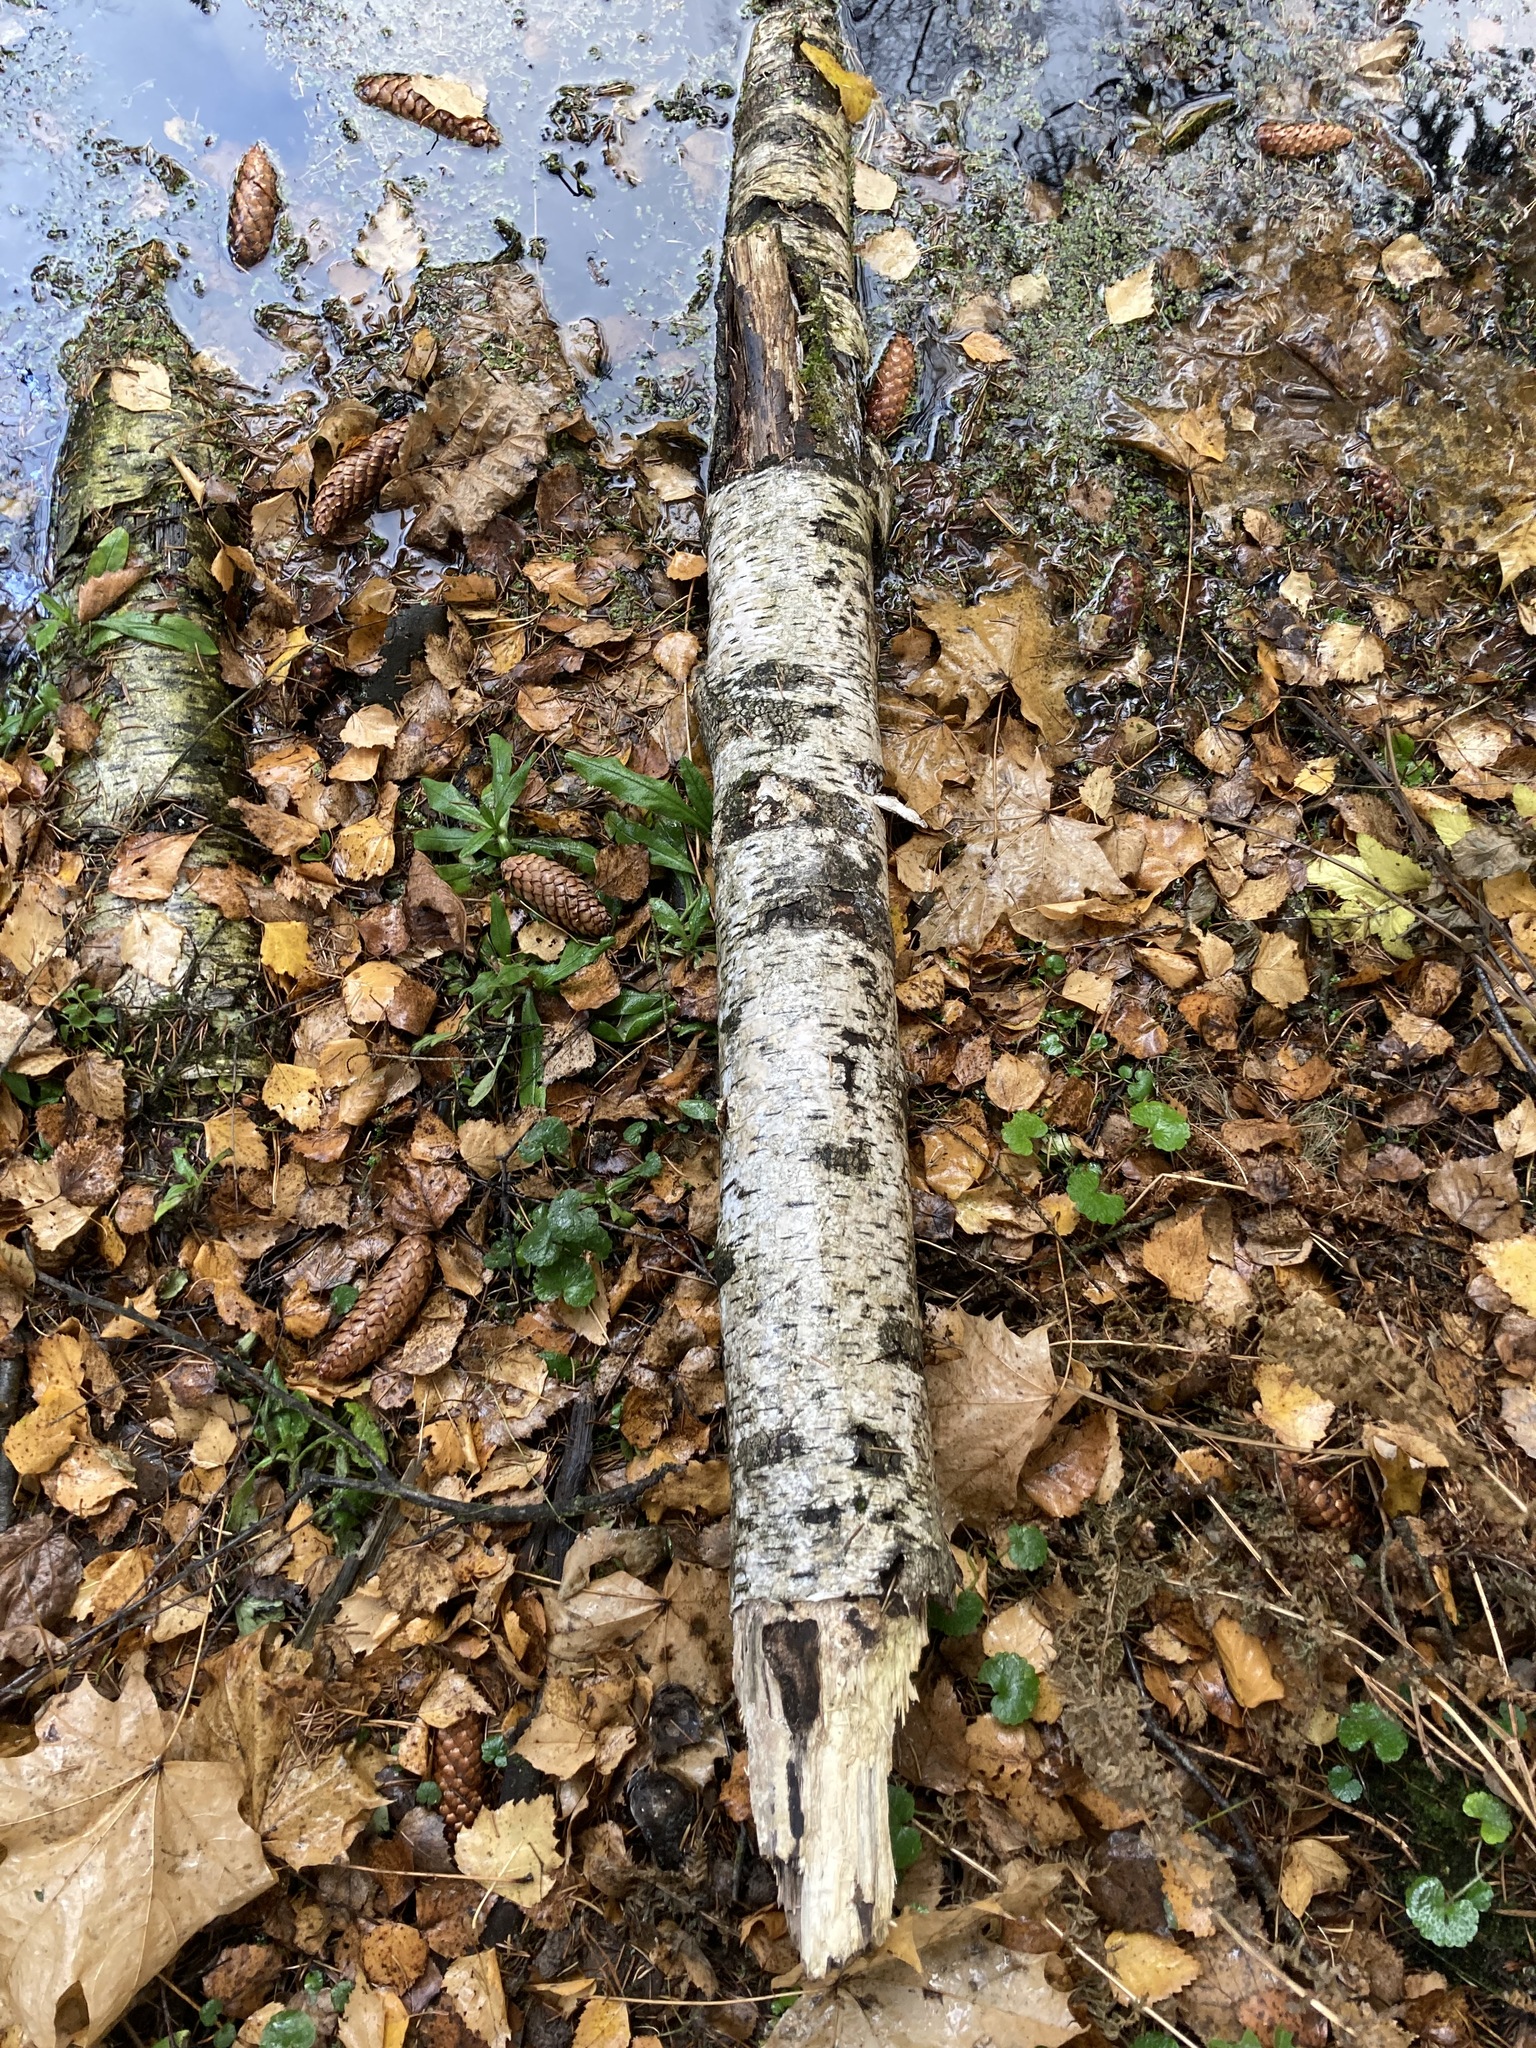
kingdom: Plantae
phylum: Tracheophyta
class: Magnoliopsida
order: Fagales
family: Betulaceae
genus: Betula
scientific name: Betula pendula
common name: Silver birch
